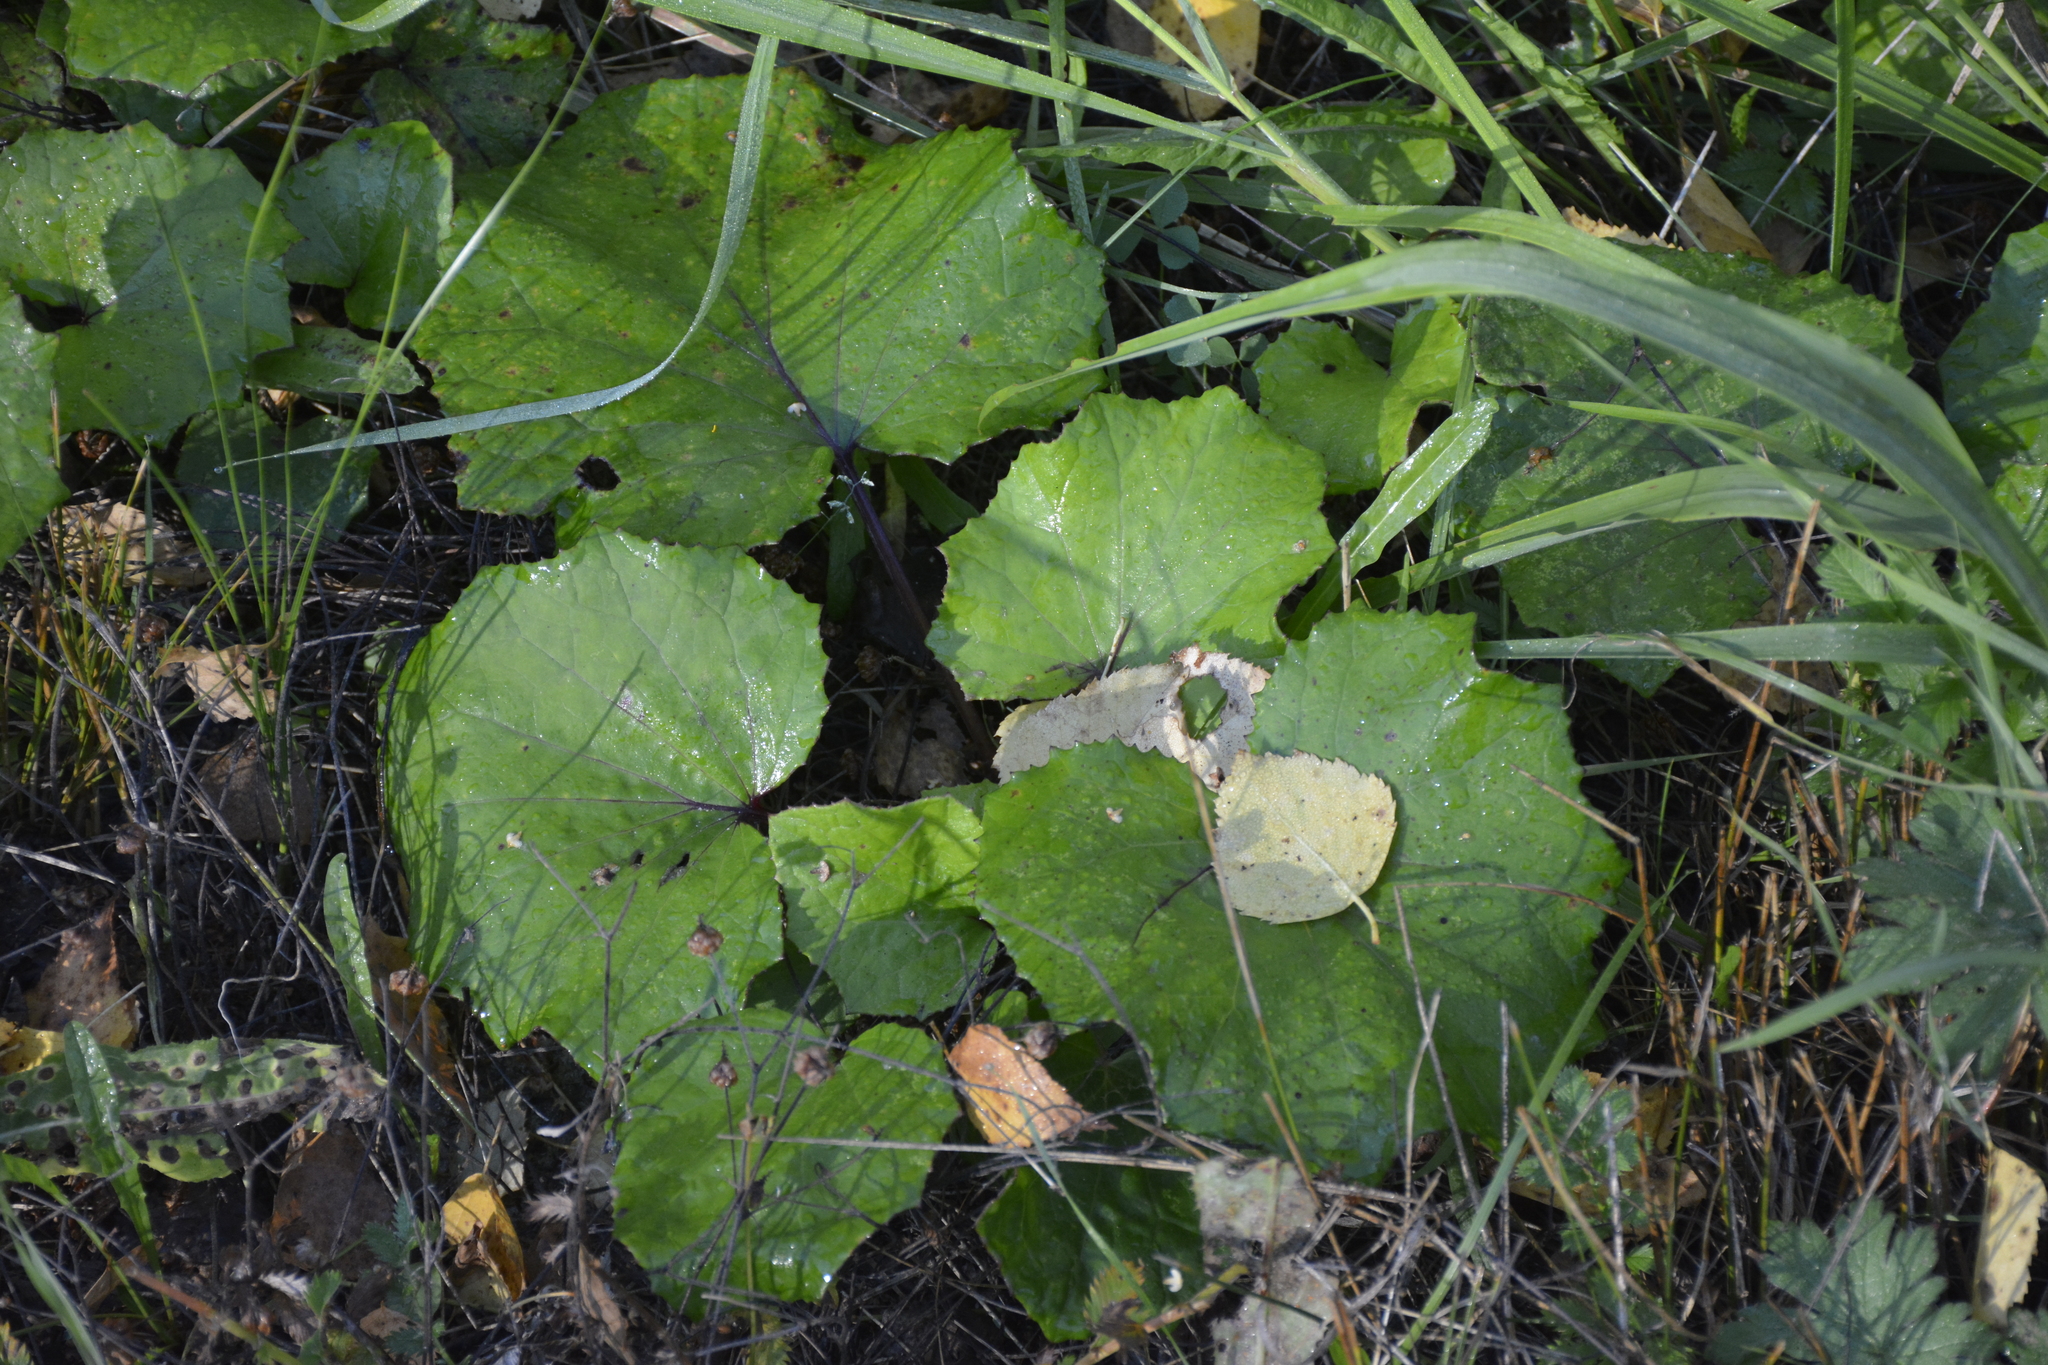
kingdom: Plantae
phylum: Tracheophyta
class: Magnoliopsida
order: Asterales
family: Asteraceae
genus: Tussilago
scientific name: Tussilago farfara
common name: Coltsfoot
